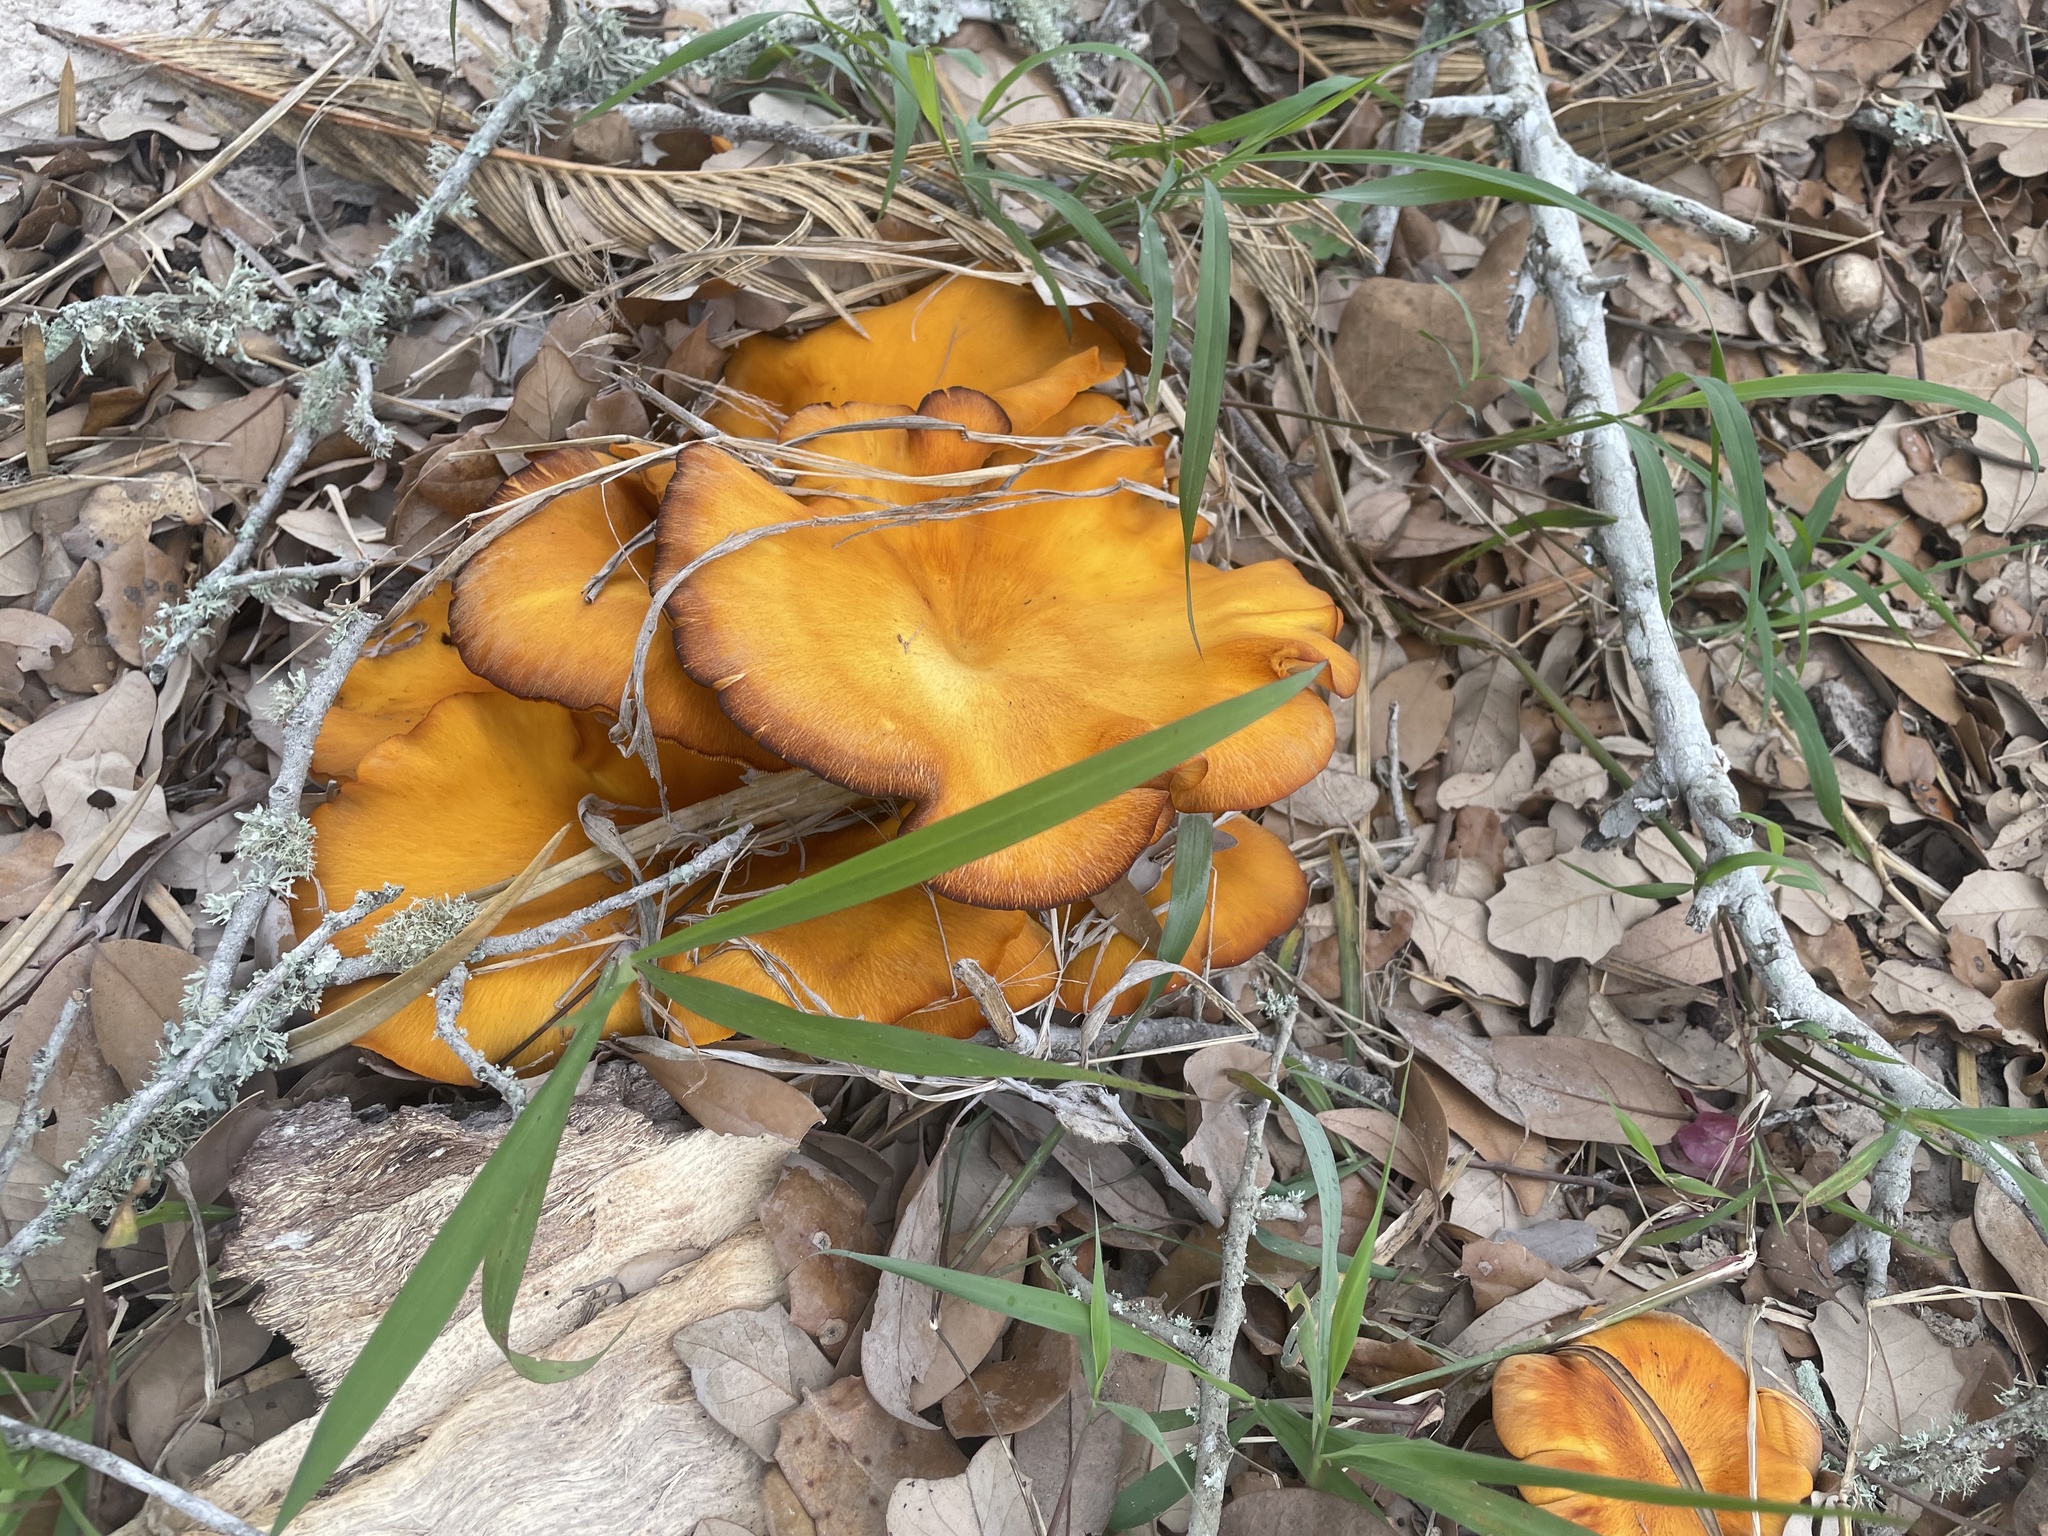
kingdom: Fungi
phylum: Basidiomycota
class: Agaricomycetes
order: Agaricales
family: Omphalotaceae
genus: Omphalotus
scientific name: Omphalotus subilludens
